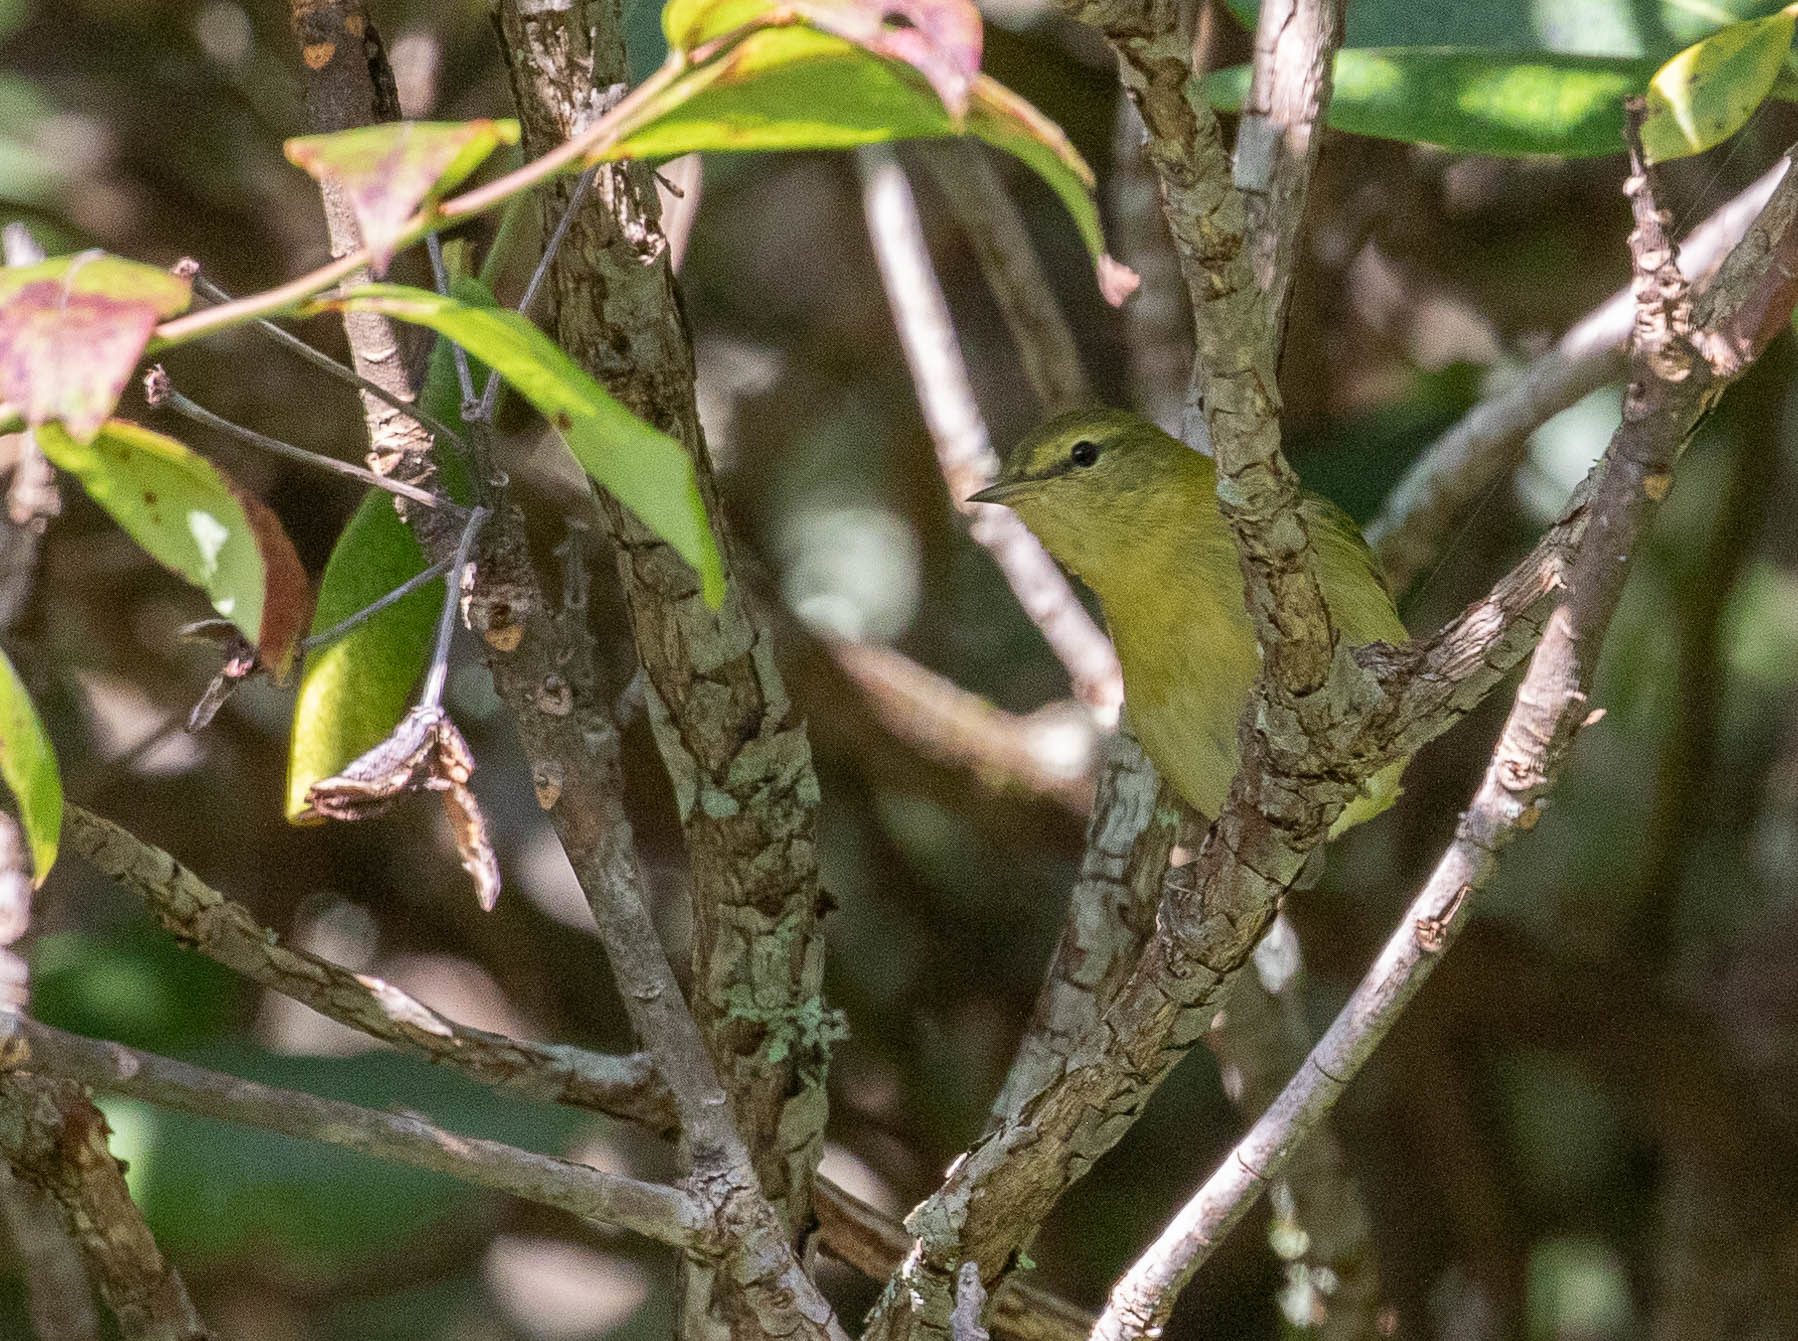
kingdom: Animalia
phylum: Chordata
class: Aves
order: Passeriformes
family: Parulidae
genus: Leiothlypis
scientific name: Leiothlypis peregrina
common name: Tennessee warbler
